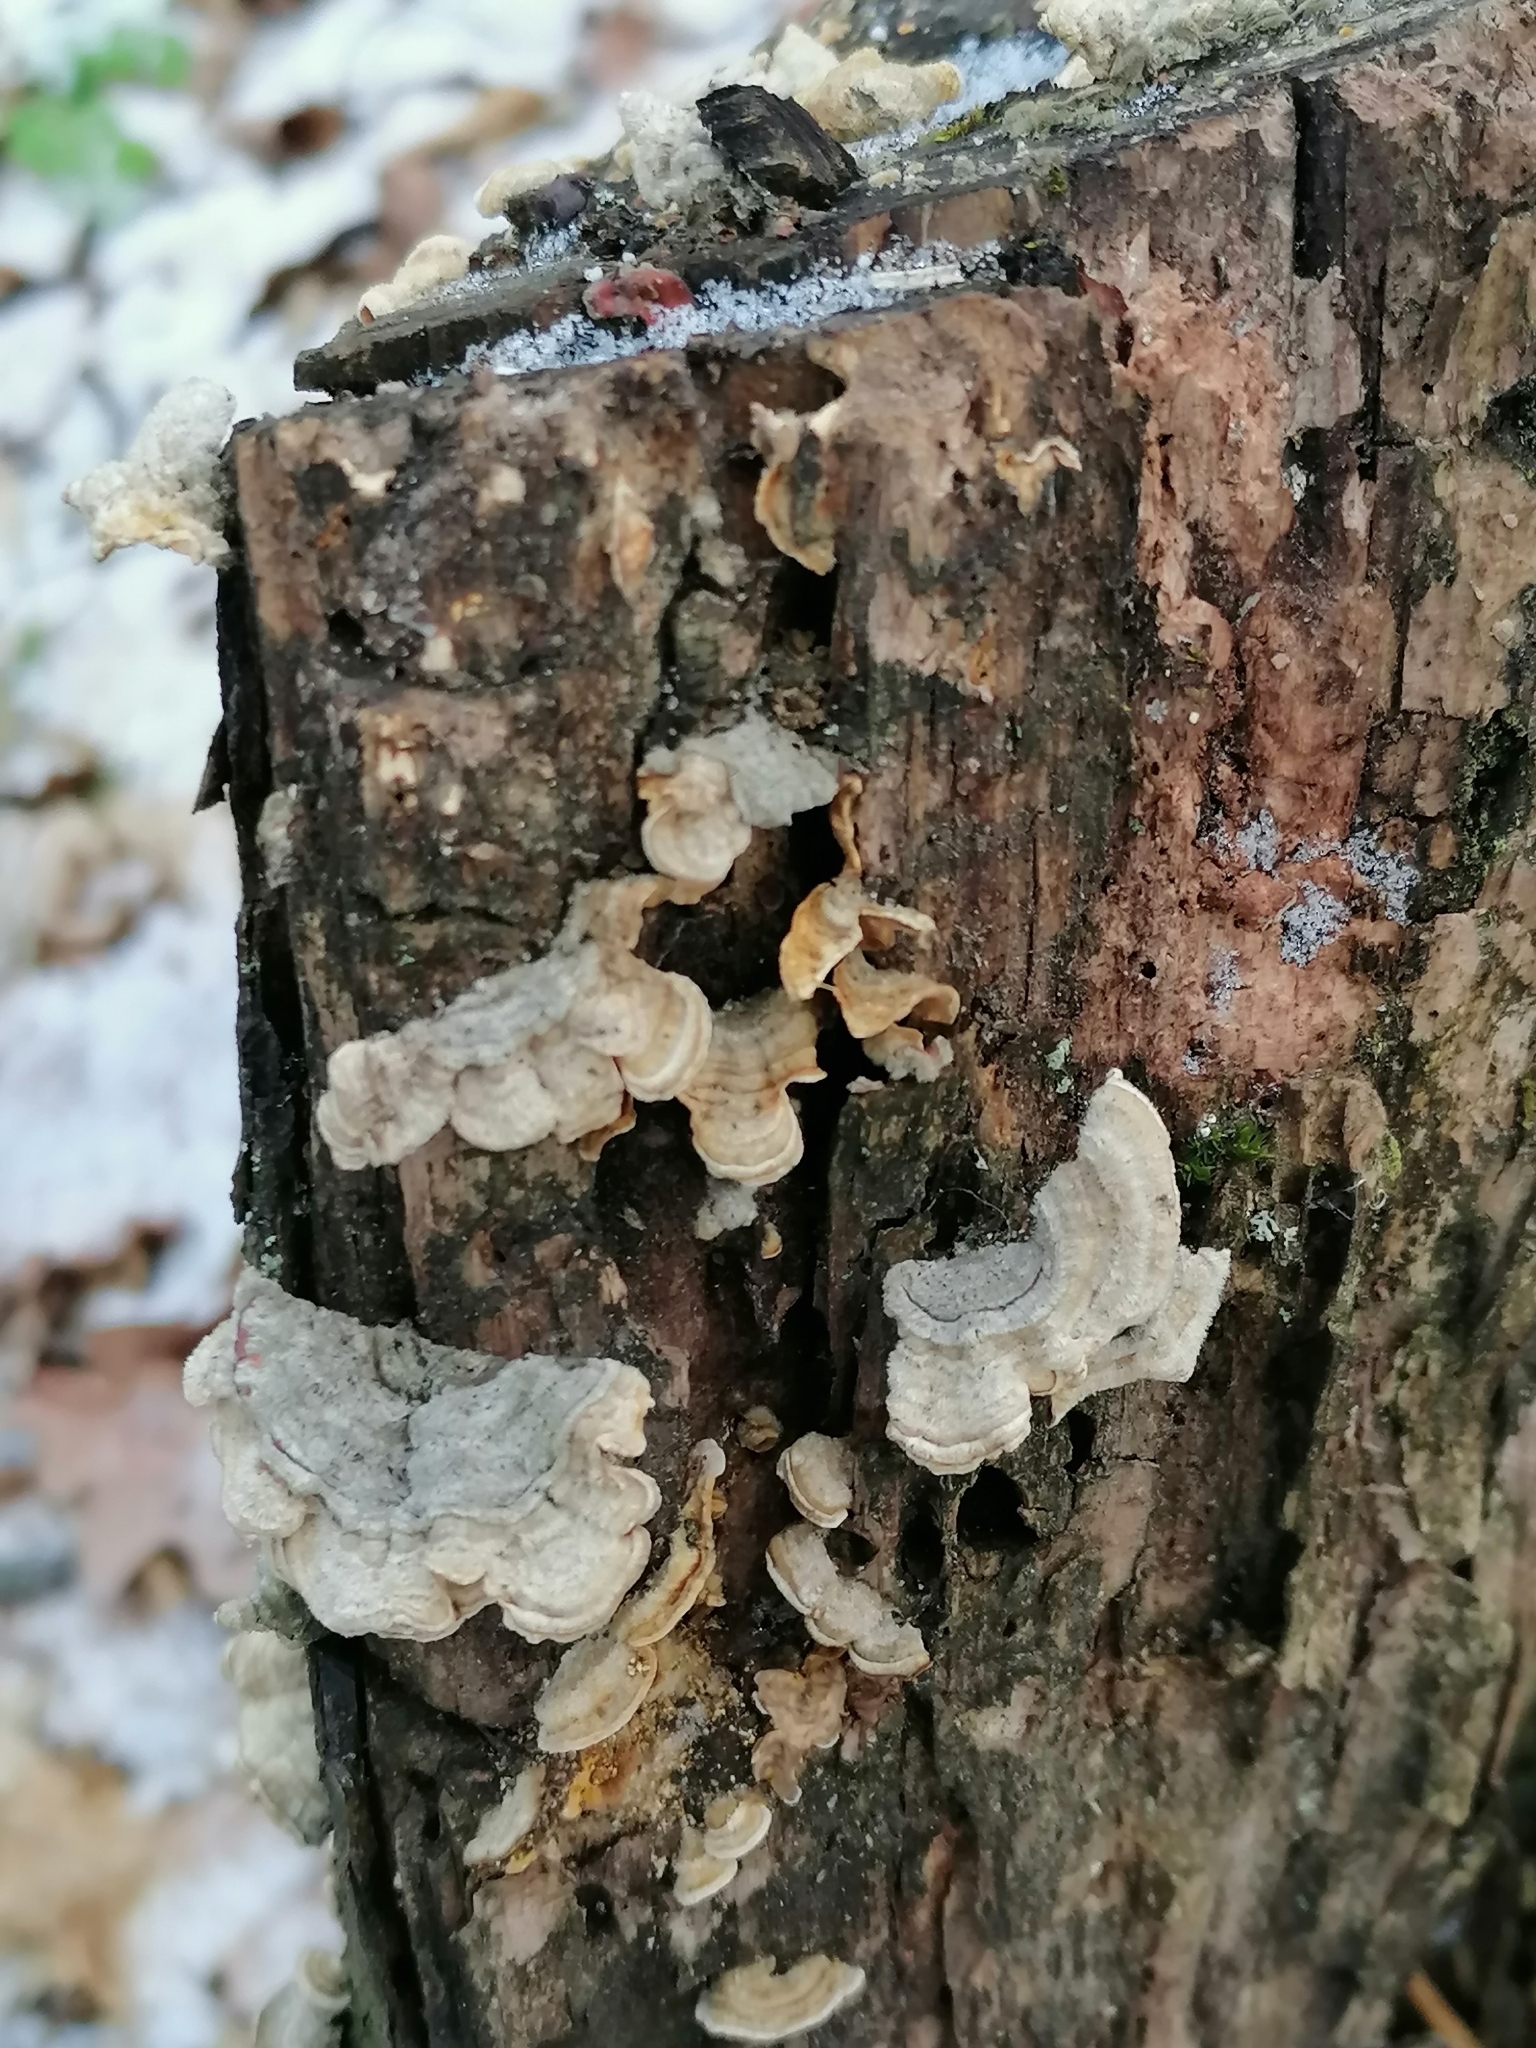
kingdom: Fungi
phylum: Basidiomycota
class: Agaricomycetes
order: Russulales
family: Stereaceae
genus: Stereum
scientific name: Stereum hirsutum
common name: Hairy curtain crust
